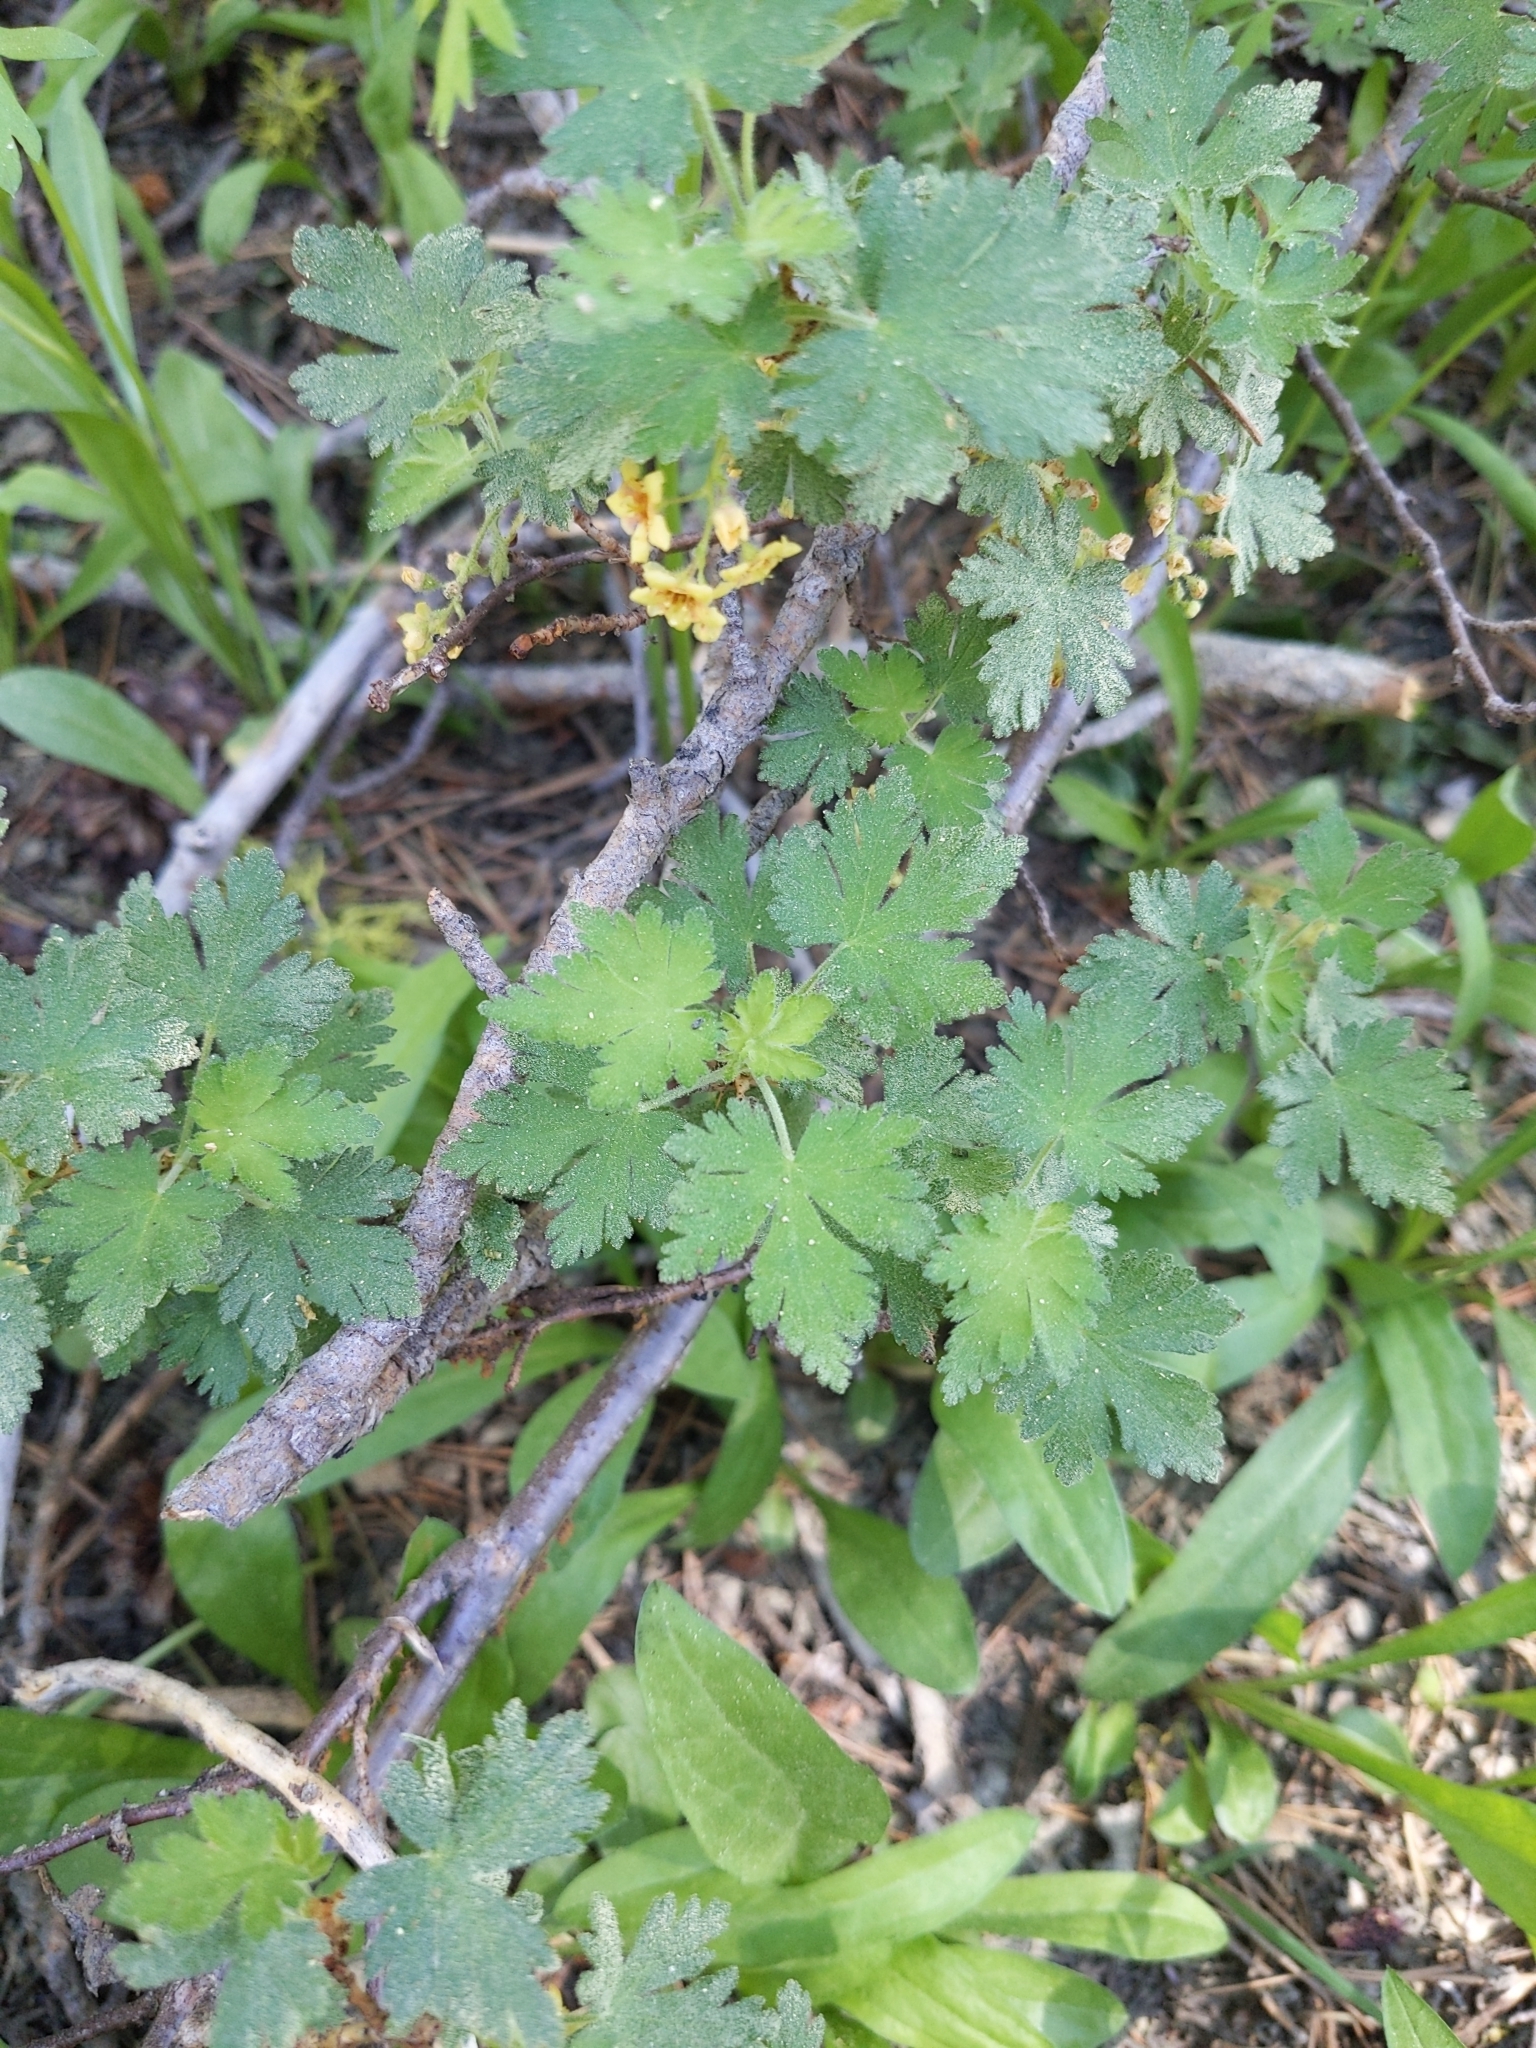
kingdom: Plantae
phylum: Tracheophyta
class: Magnoliopsida
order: Saxifragales
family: Grossulariaceae
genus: Ribes
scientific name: Ribes montigenum
